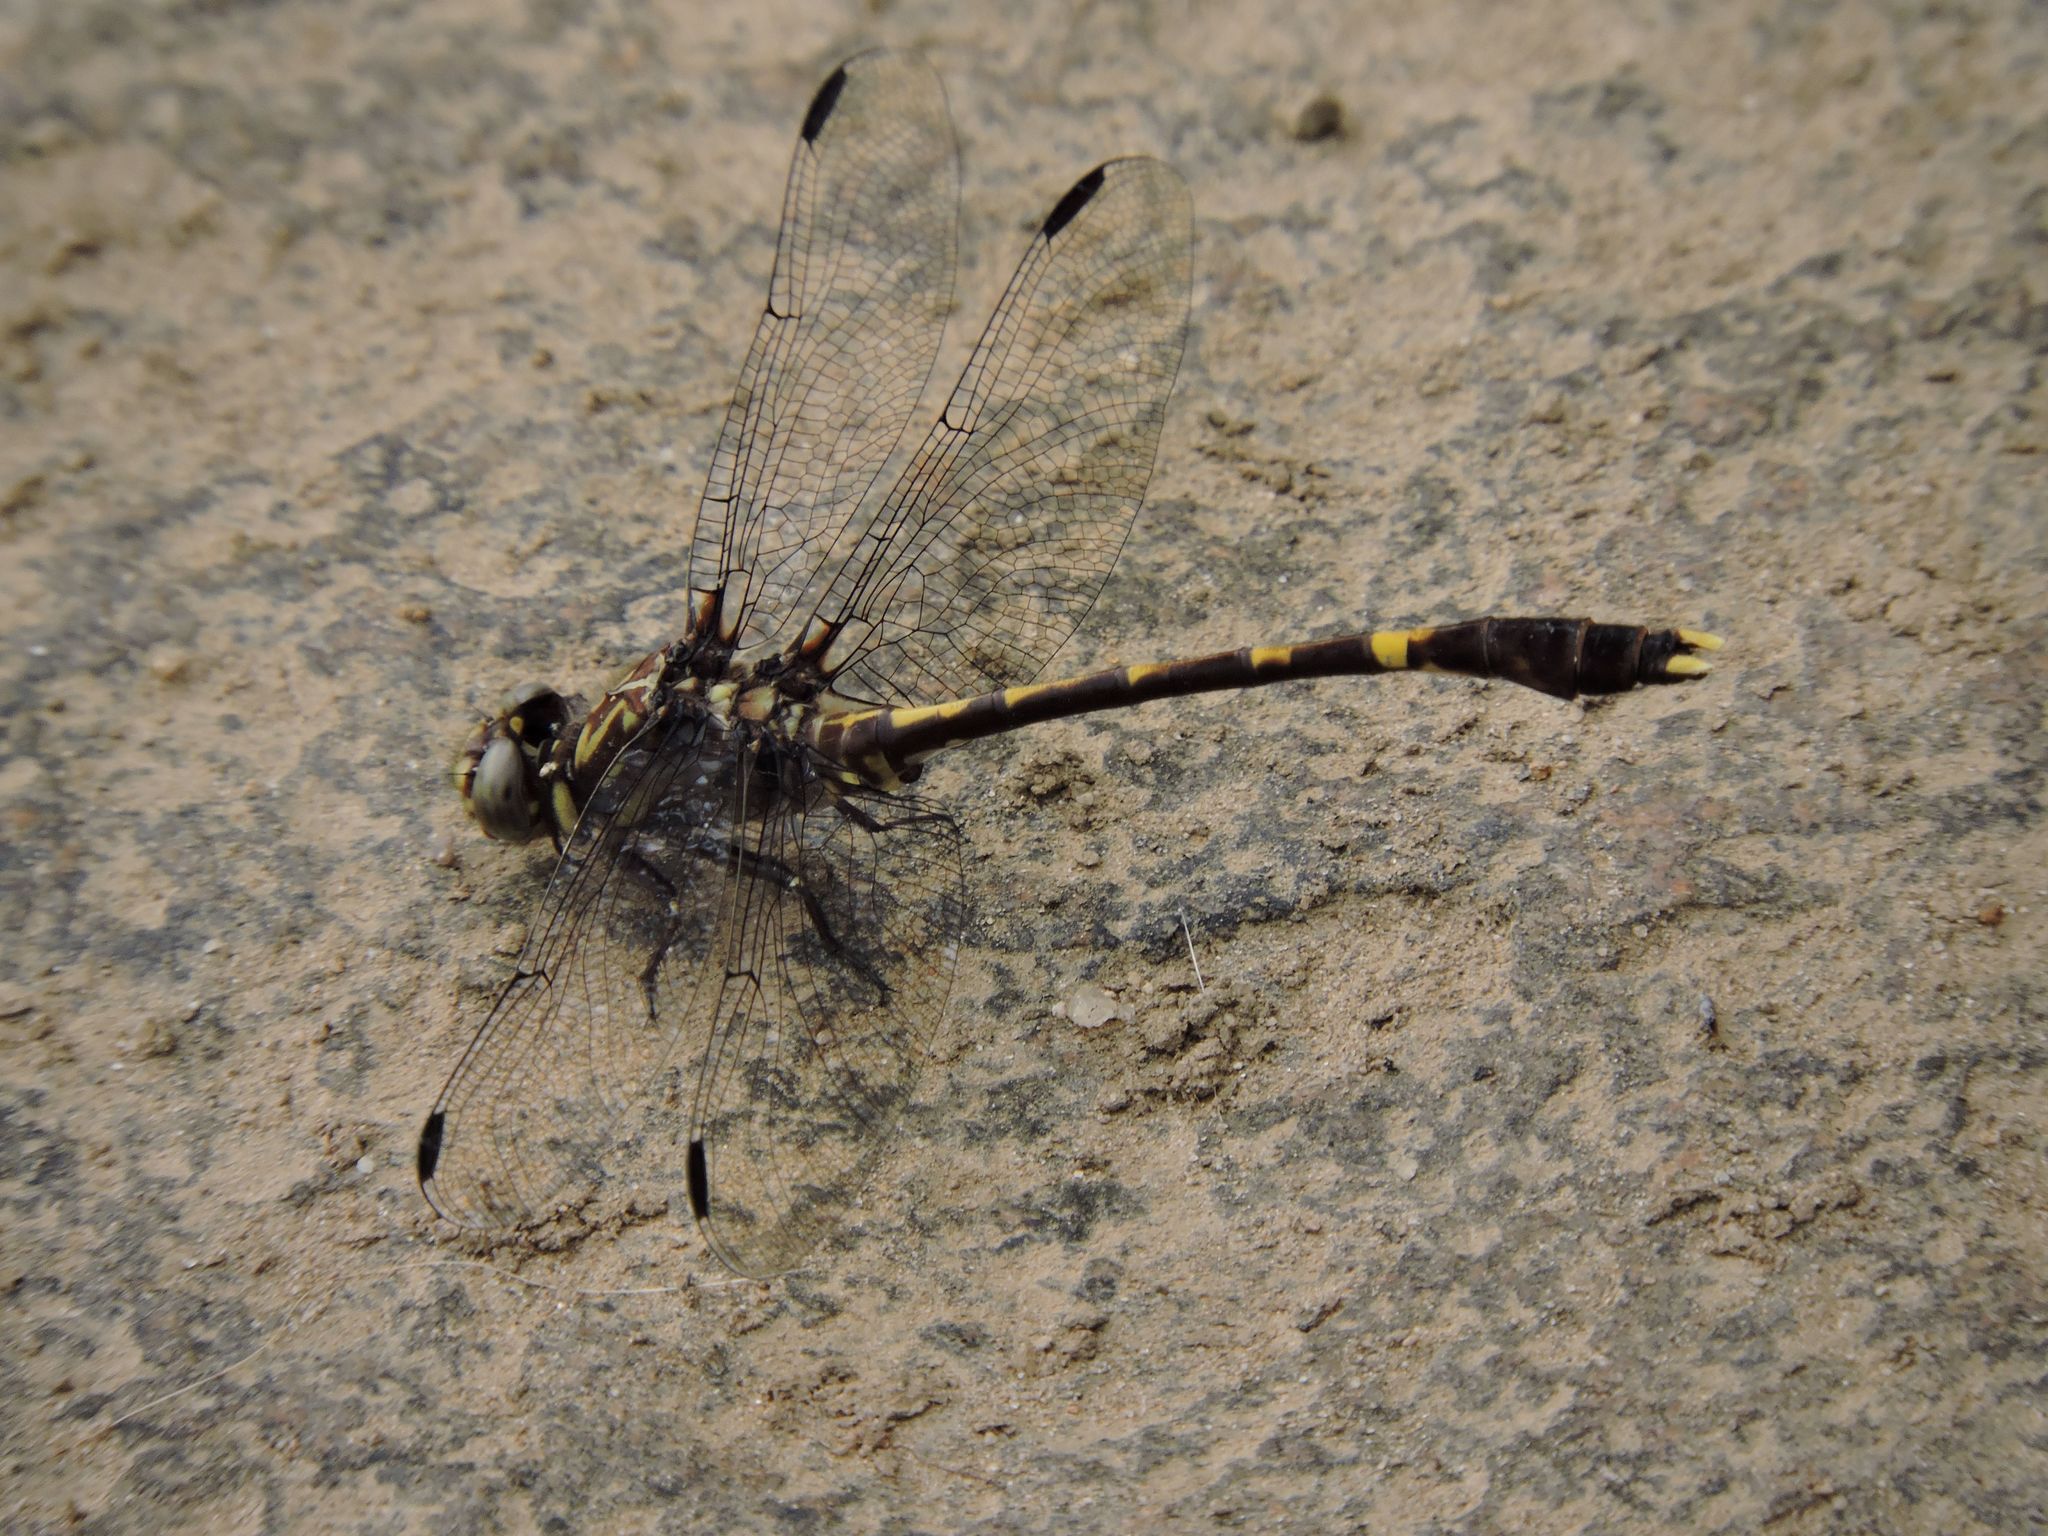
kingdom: Animalia
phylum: Arthropoda
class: Insecta
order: Odonata
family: Gomphidae
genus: Progomphus
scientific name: Progomphus obscurus
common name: Common sanddragon
